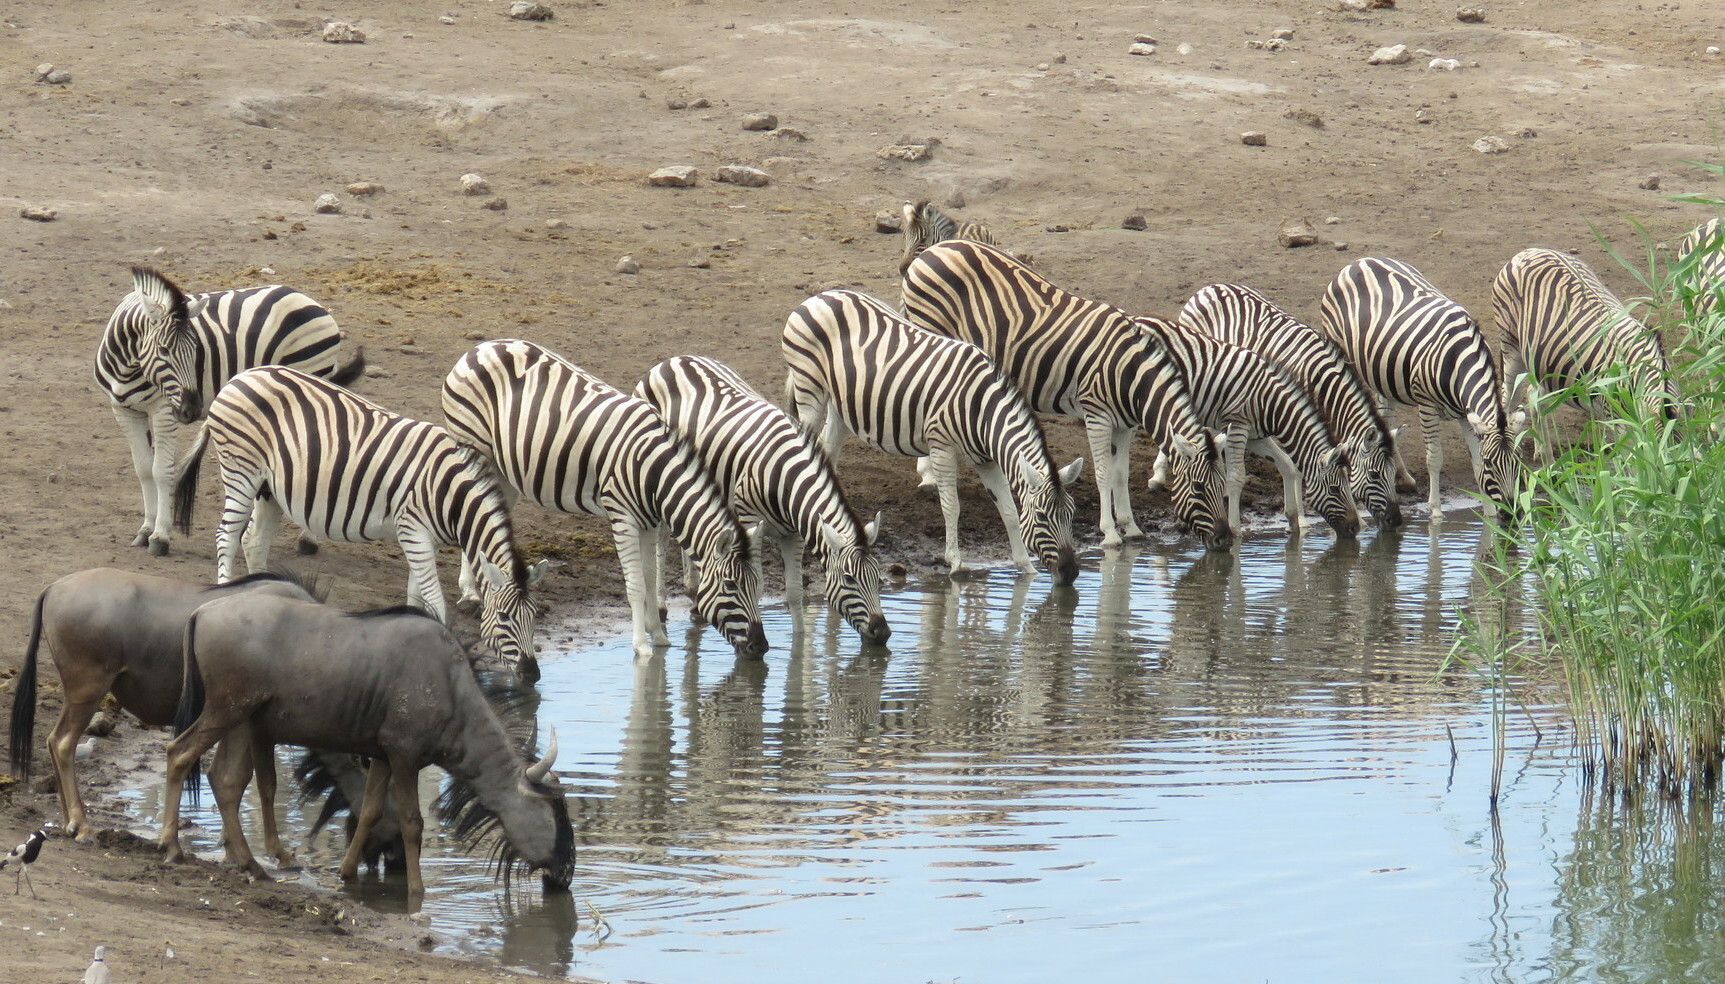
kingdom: Animalia
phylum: Chordata
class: Mammalia
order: Perissodactyla
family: Equidae
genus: Equus
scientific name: Equus quagga
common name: Plains zebra
